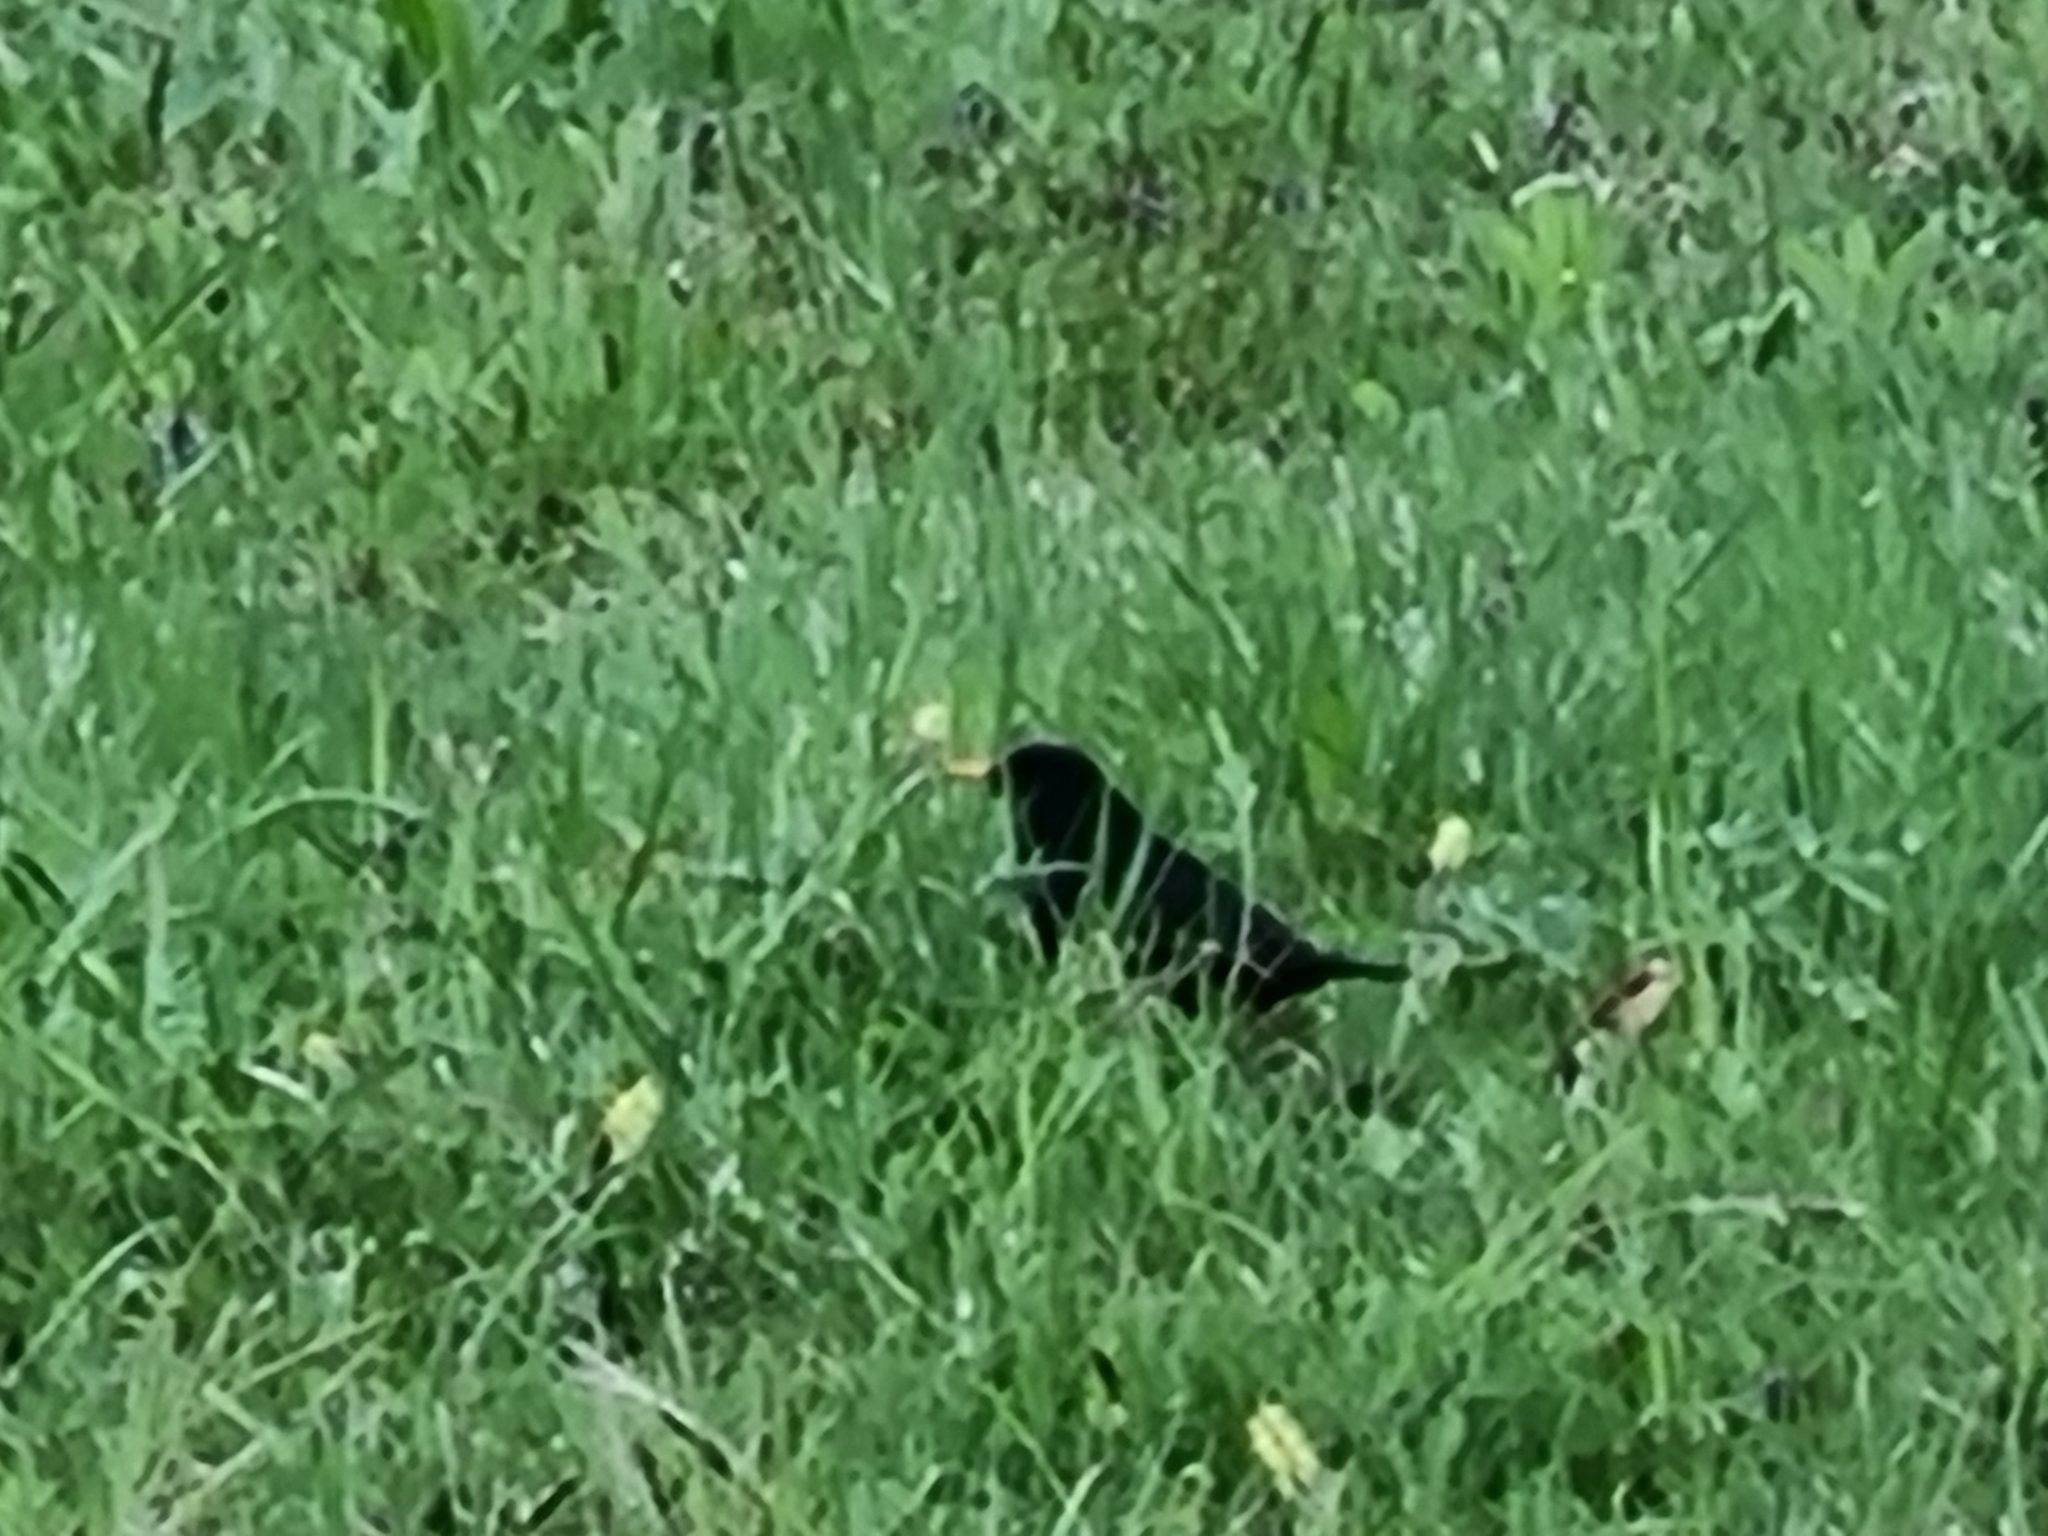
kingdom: Animalia
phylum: Chordata
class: Aves
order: Passeriformes
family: Turdidae
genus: Turdus
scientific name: Turdus merula
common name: Common blackbird
